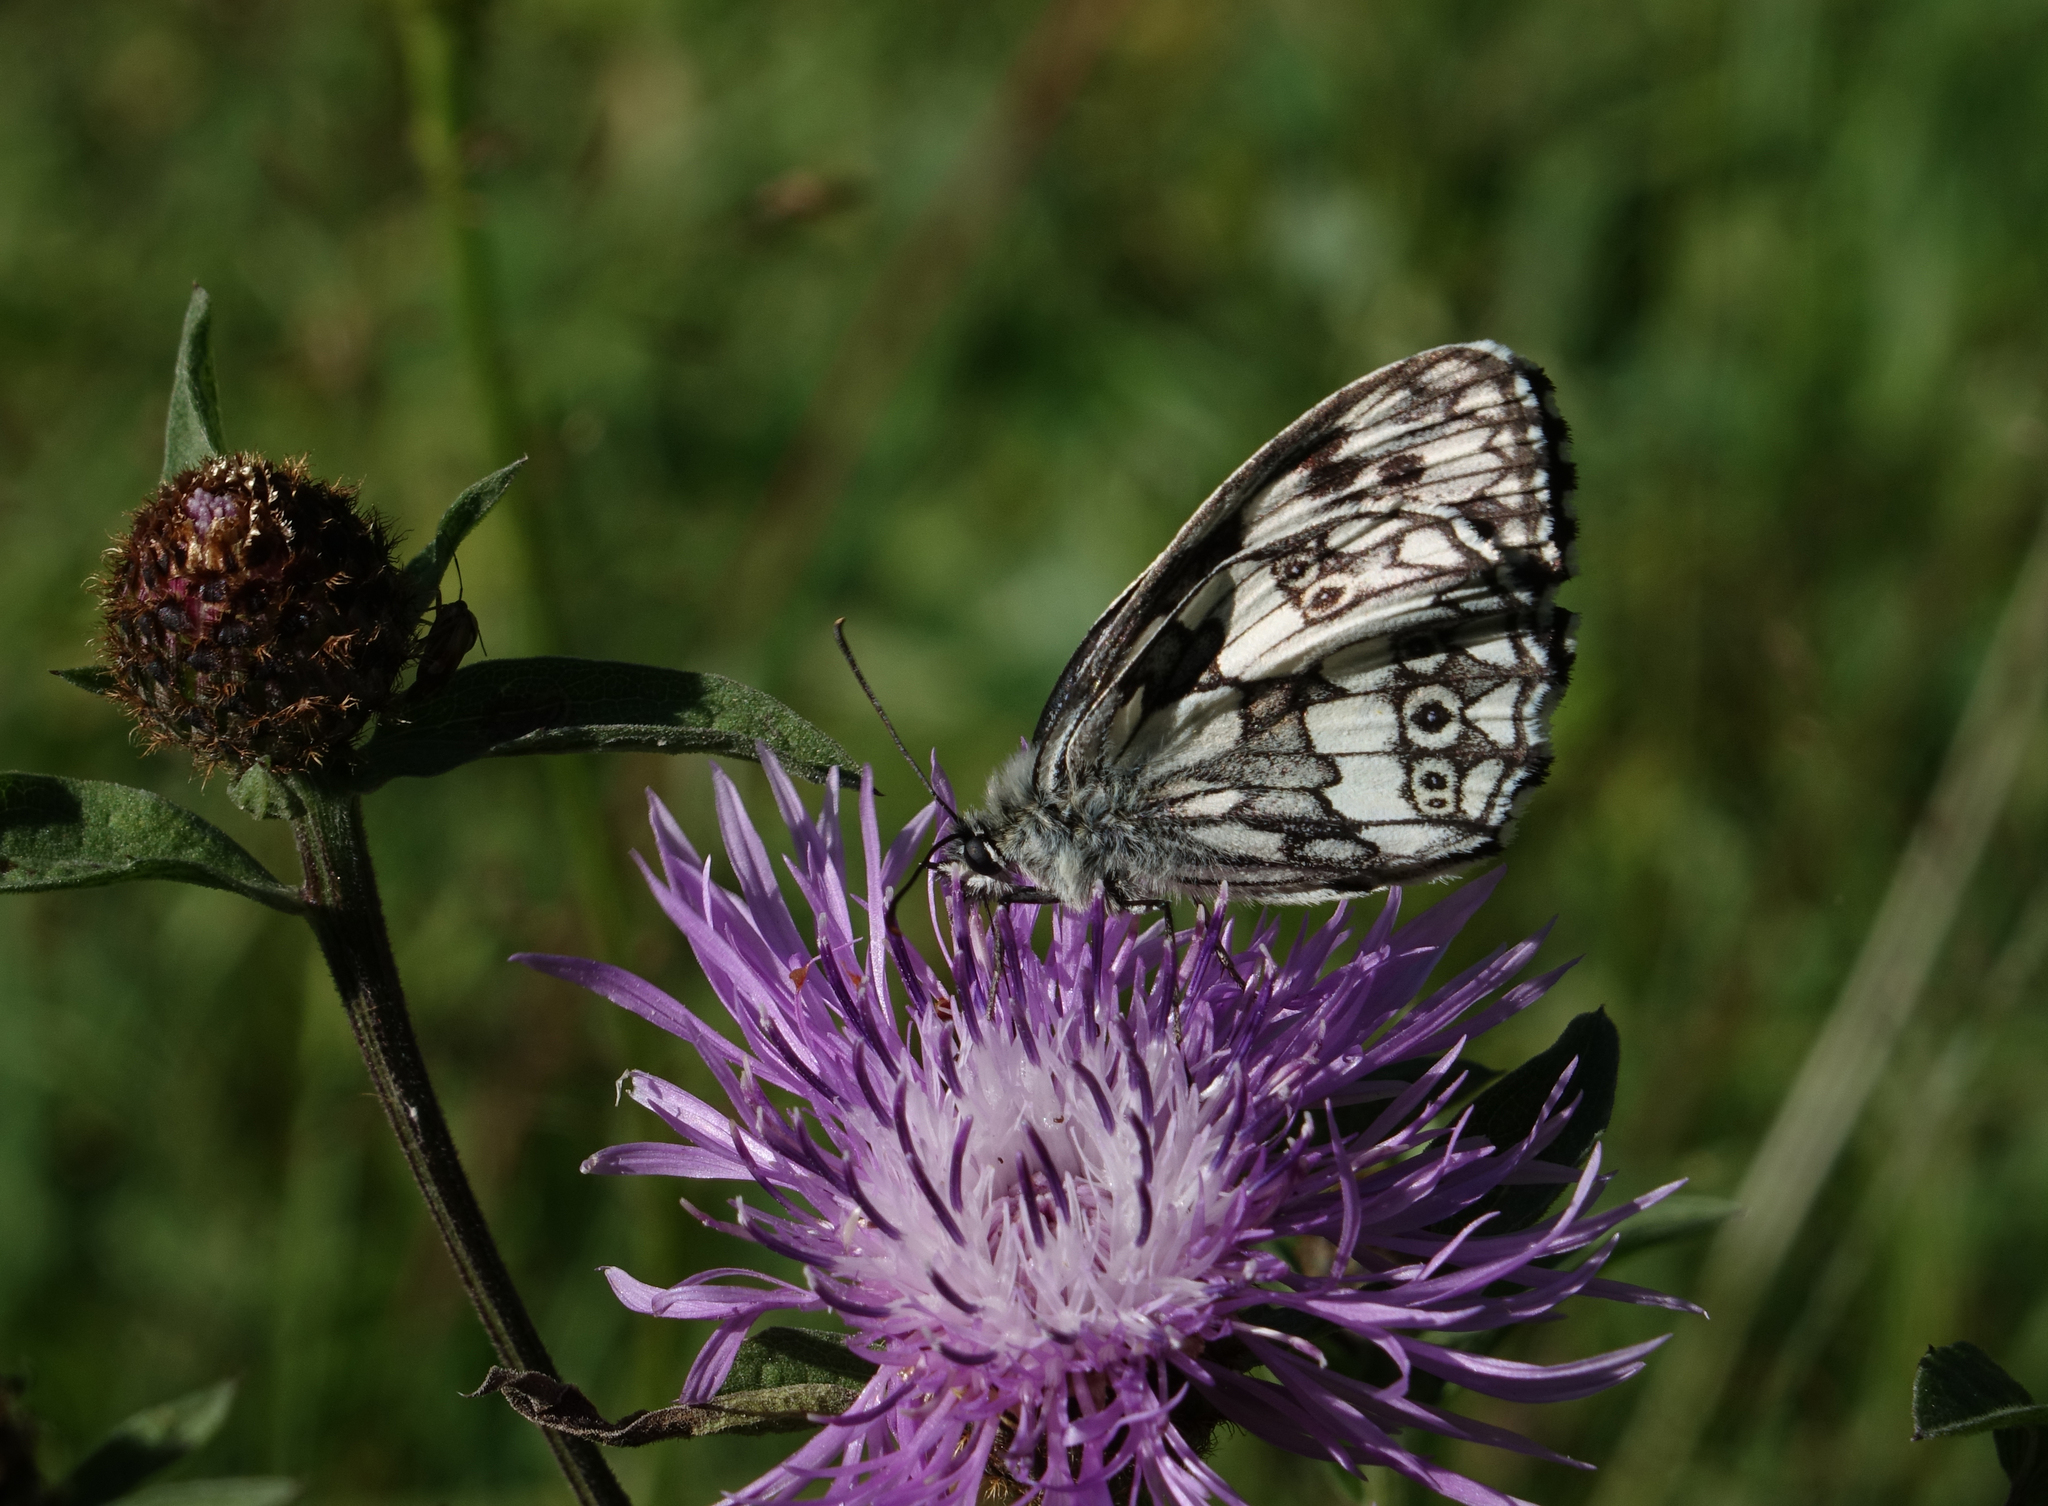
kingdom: Animalia
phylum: Arthropoda
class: Insecta
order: Lepidoptera
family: Nymphalidae
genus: Melanargia
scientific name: Melanargia galathea
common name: Marbled white
